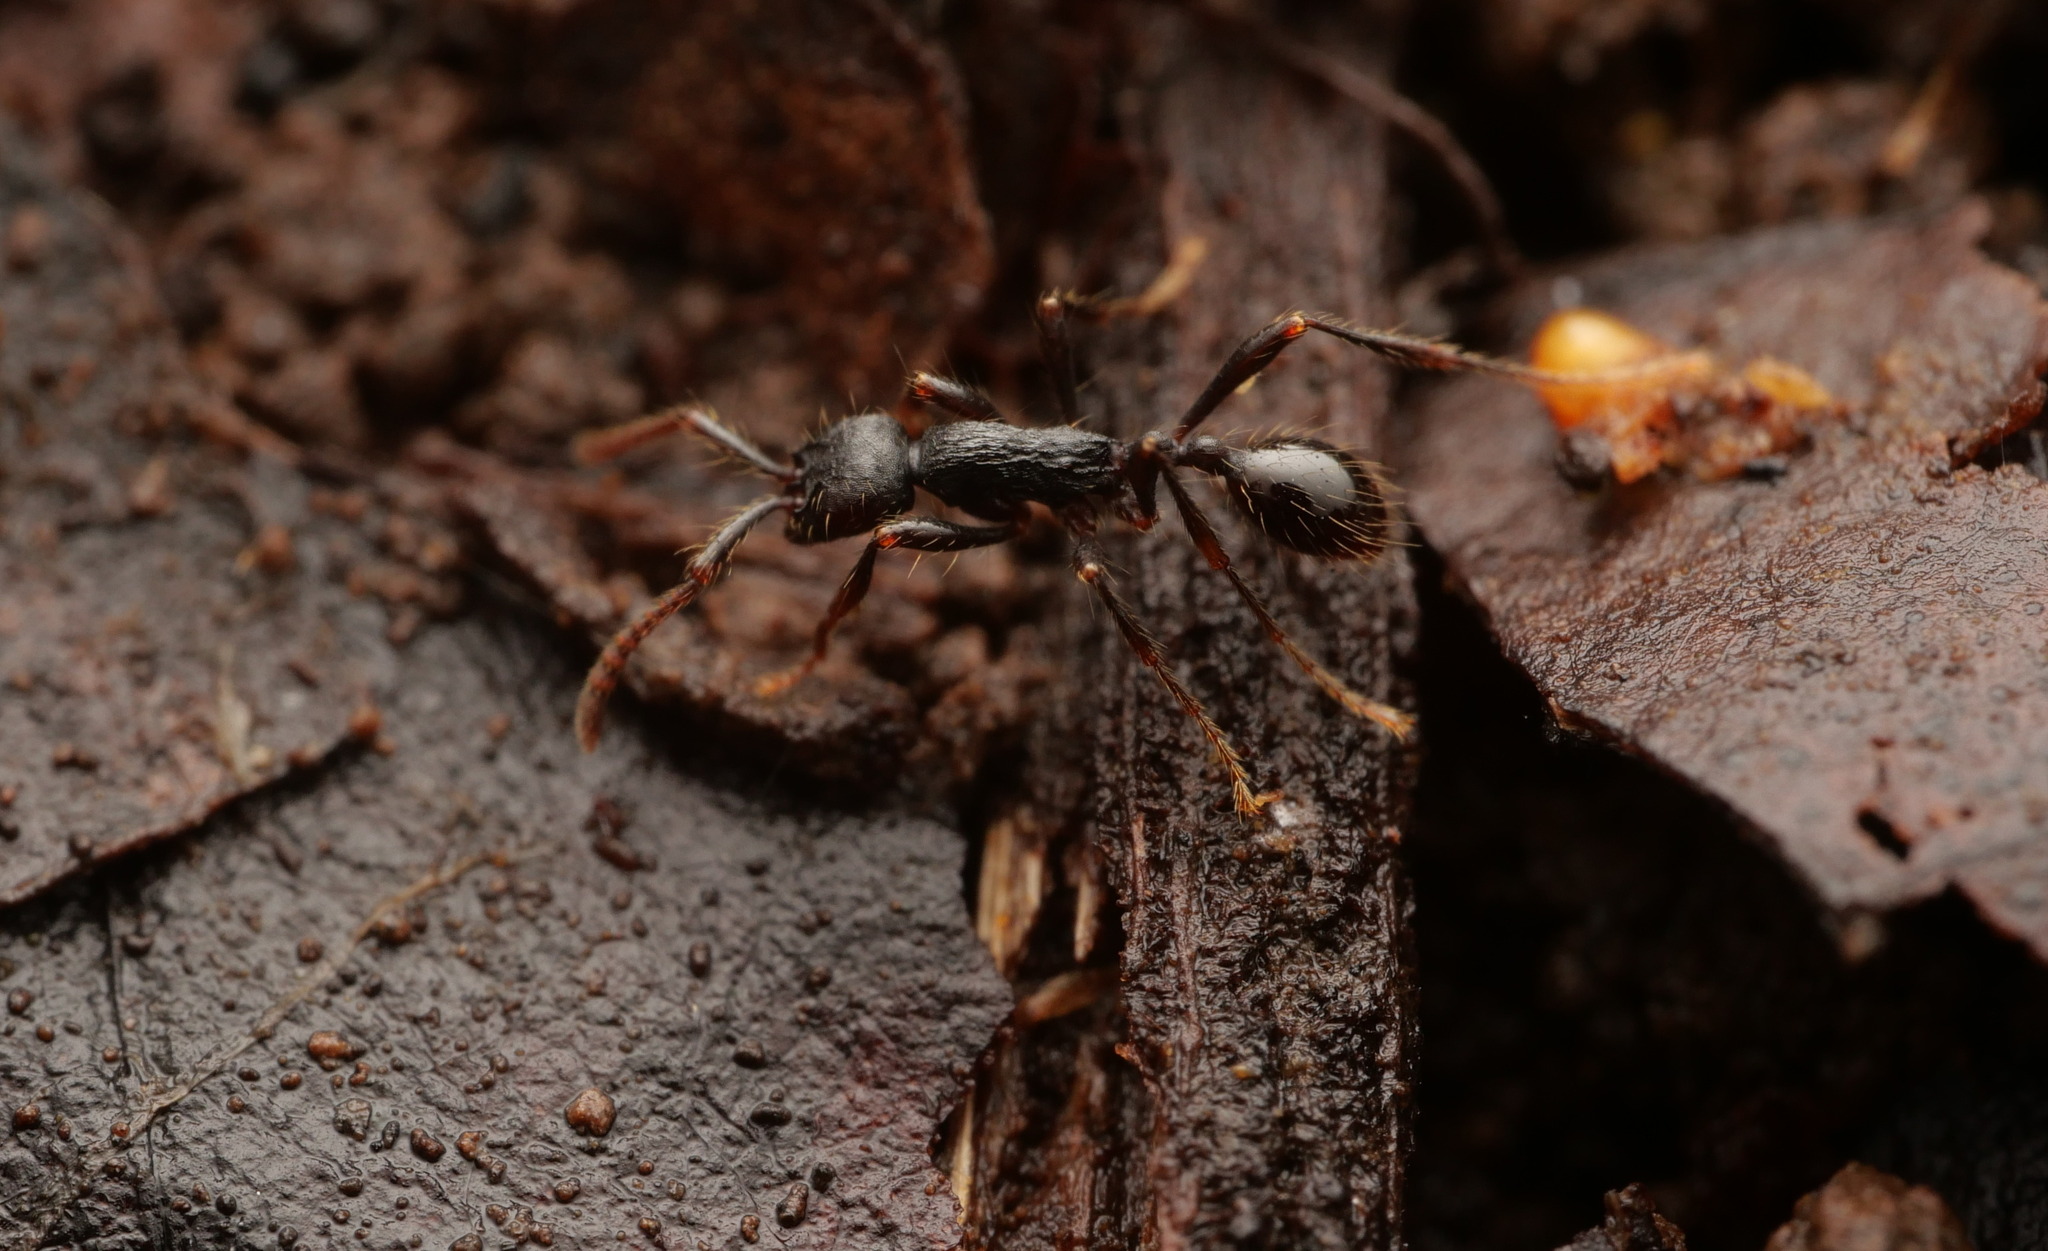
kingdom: Animalia
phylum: Arthropoda
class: Insecta
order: Hymenoptera
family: Formicidae
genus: Paratrechina
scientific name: Paratrechina fulva
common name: Tawny crazy ant
